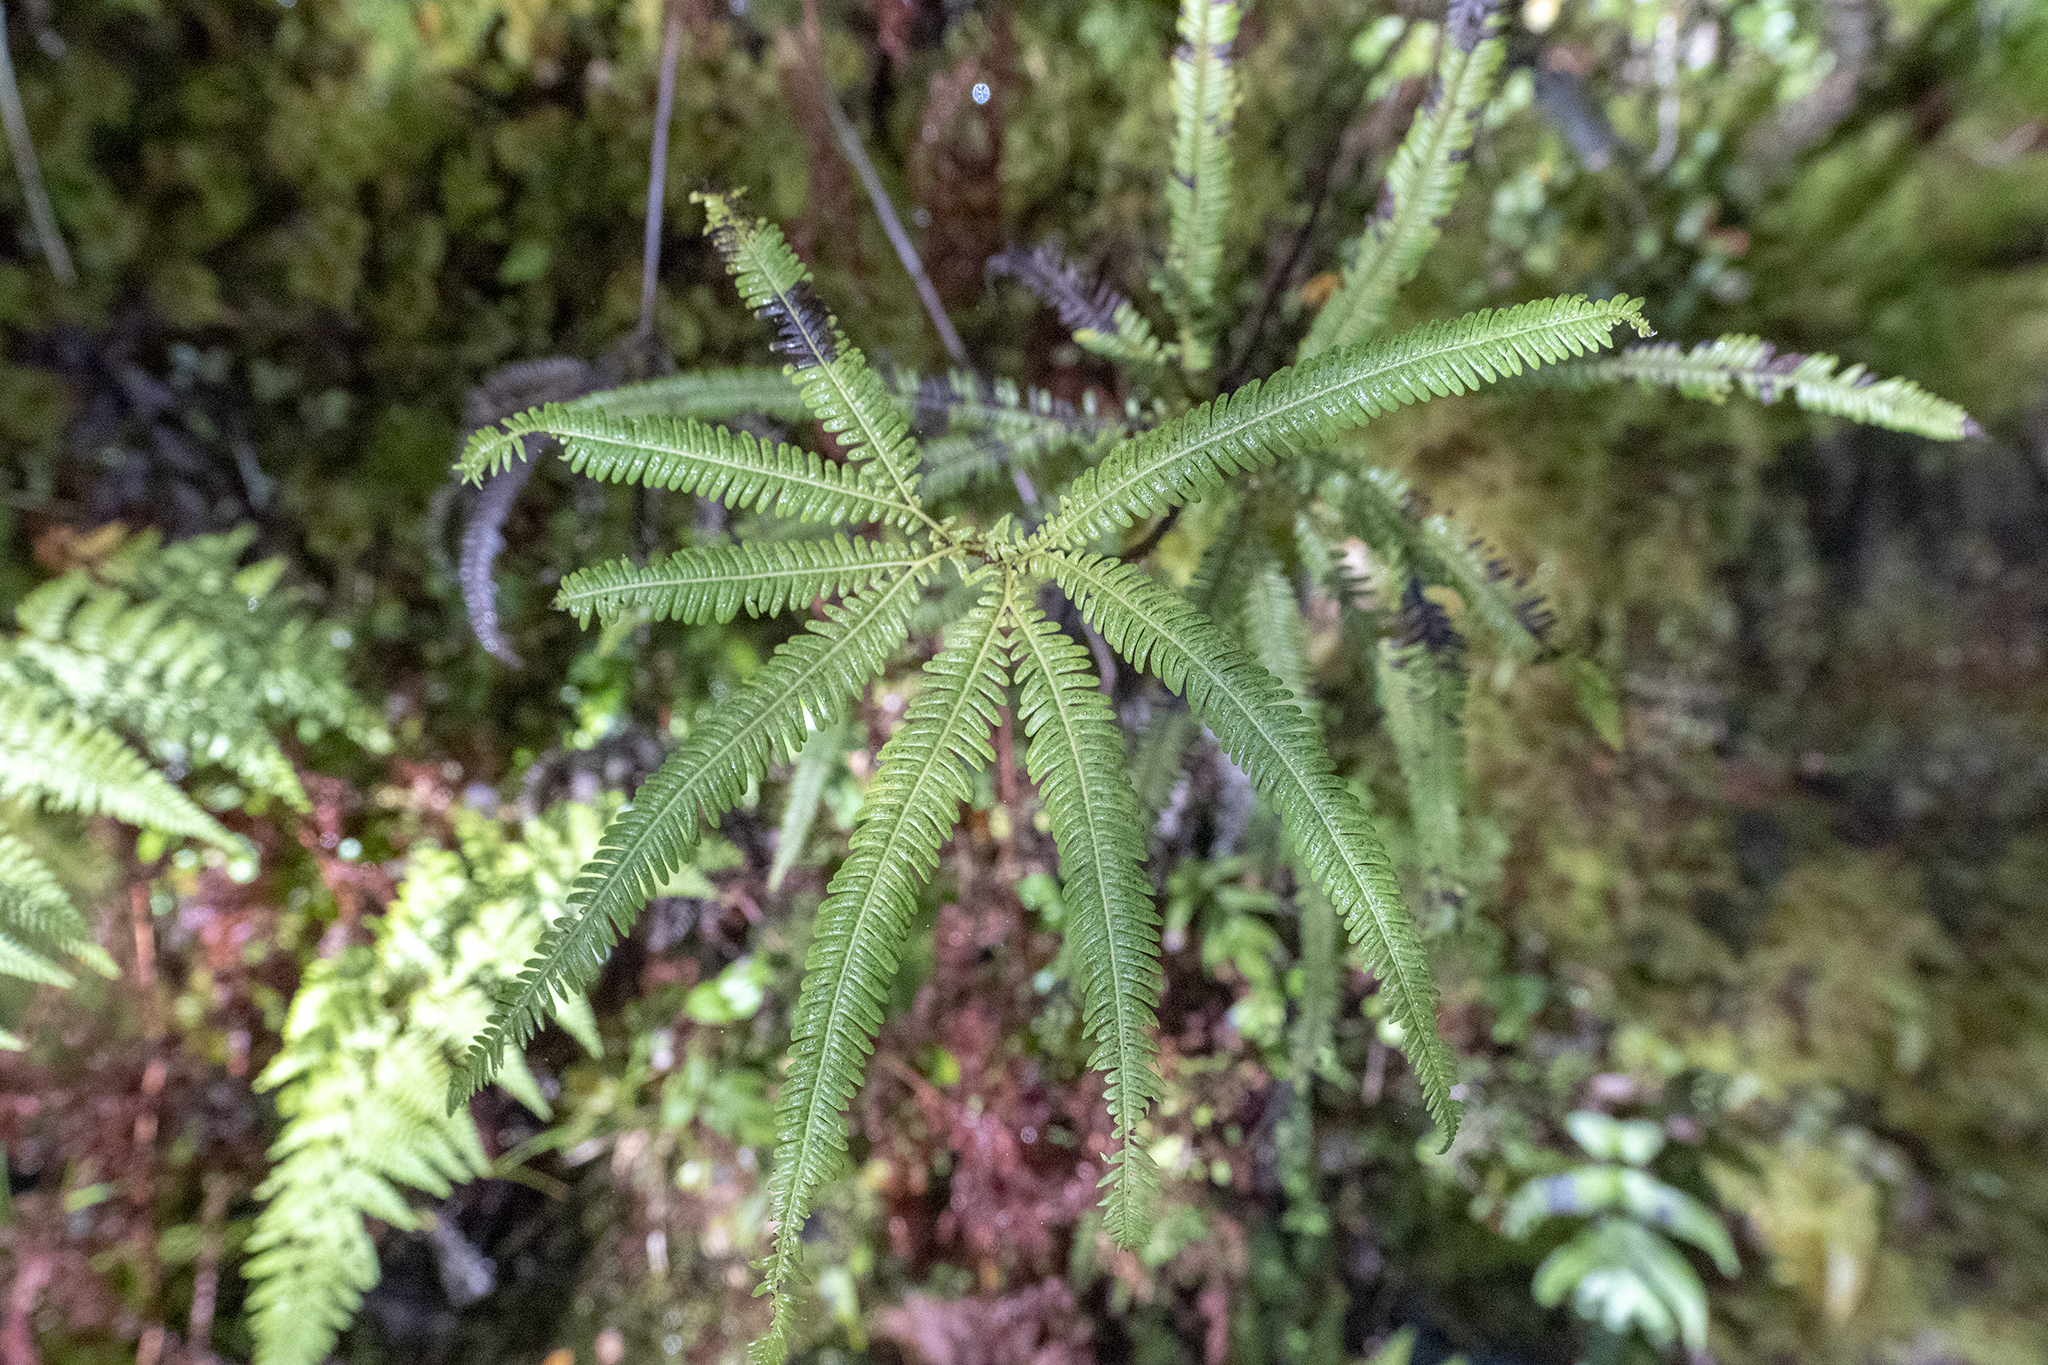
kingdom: Plantae
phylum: Tracheophyta
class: Polypodiopsida
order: Gleicheniales
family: Gleicheniaceae
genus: Sticherus
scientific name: Sticherus cunninghamii
